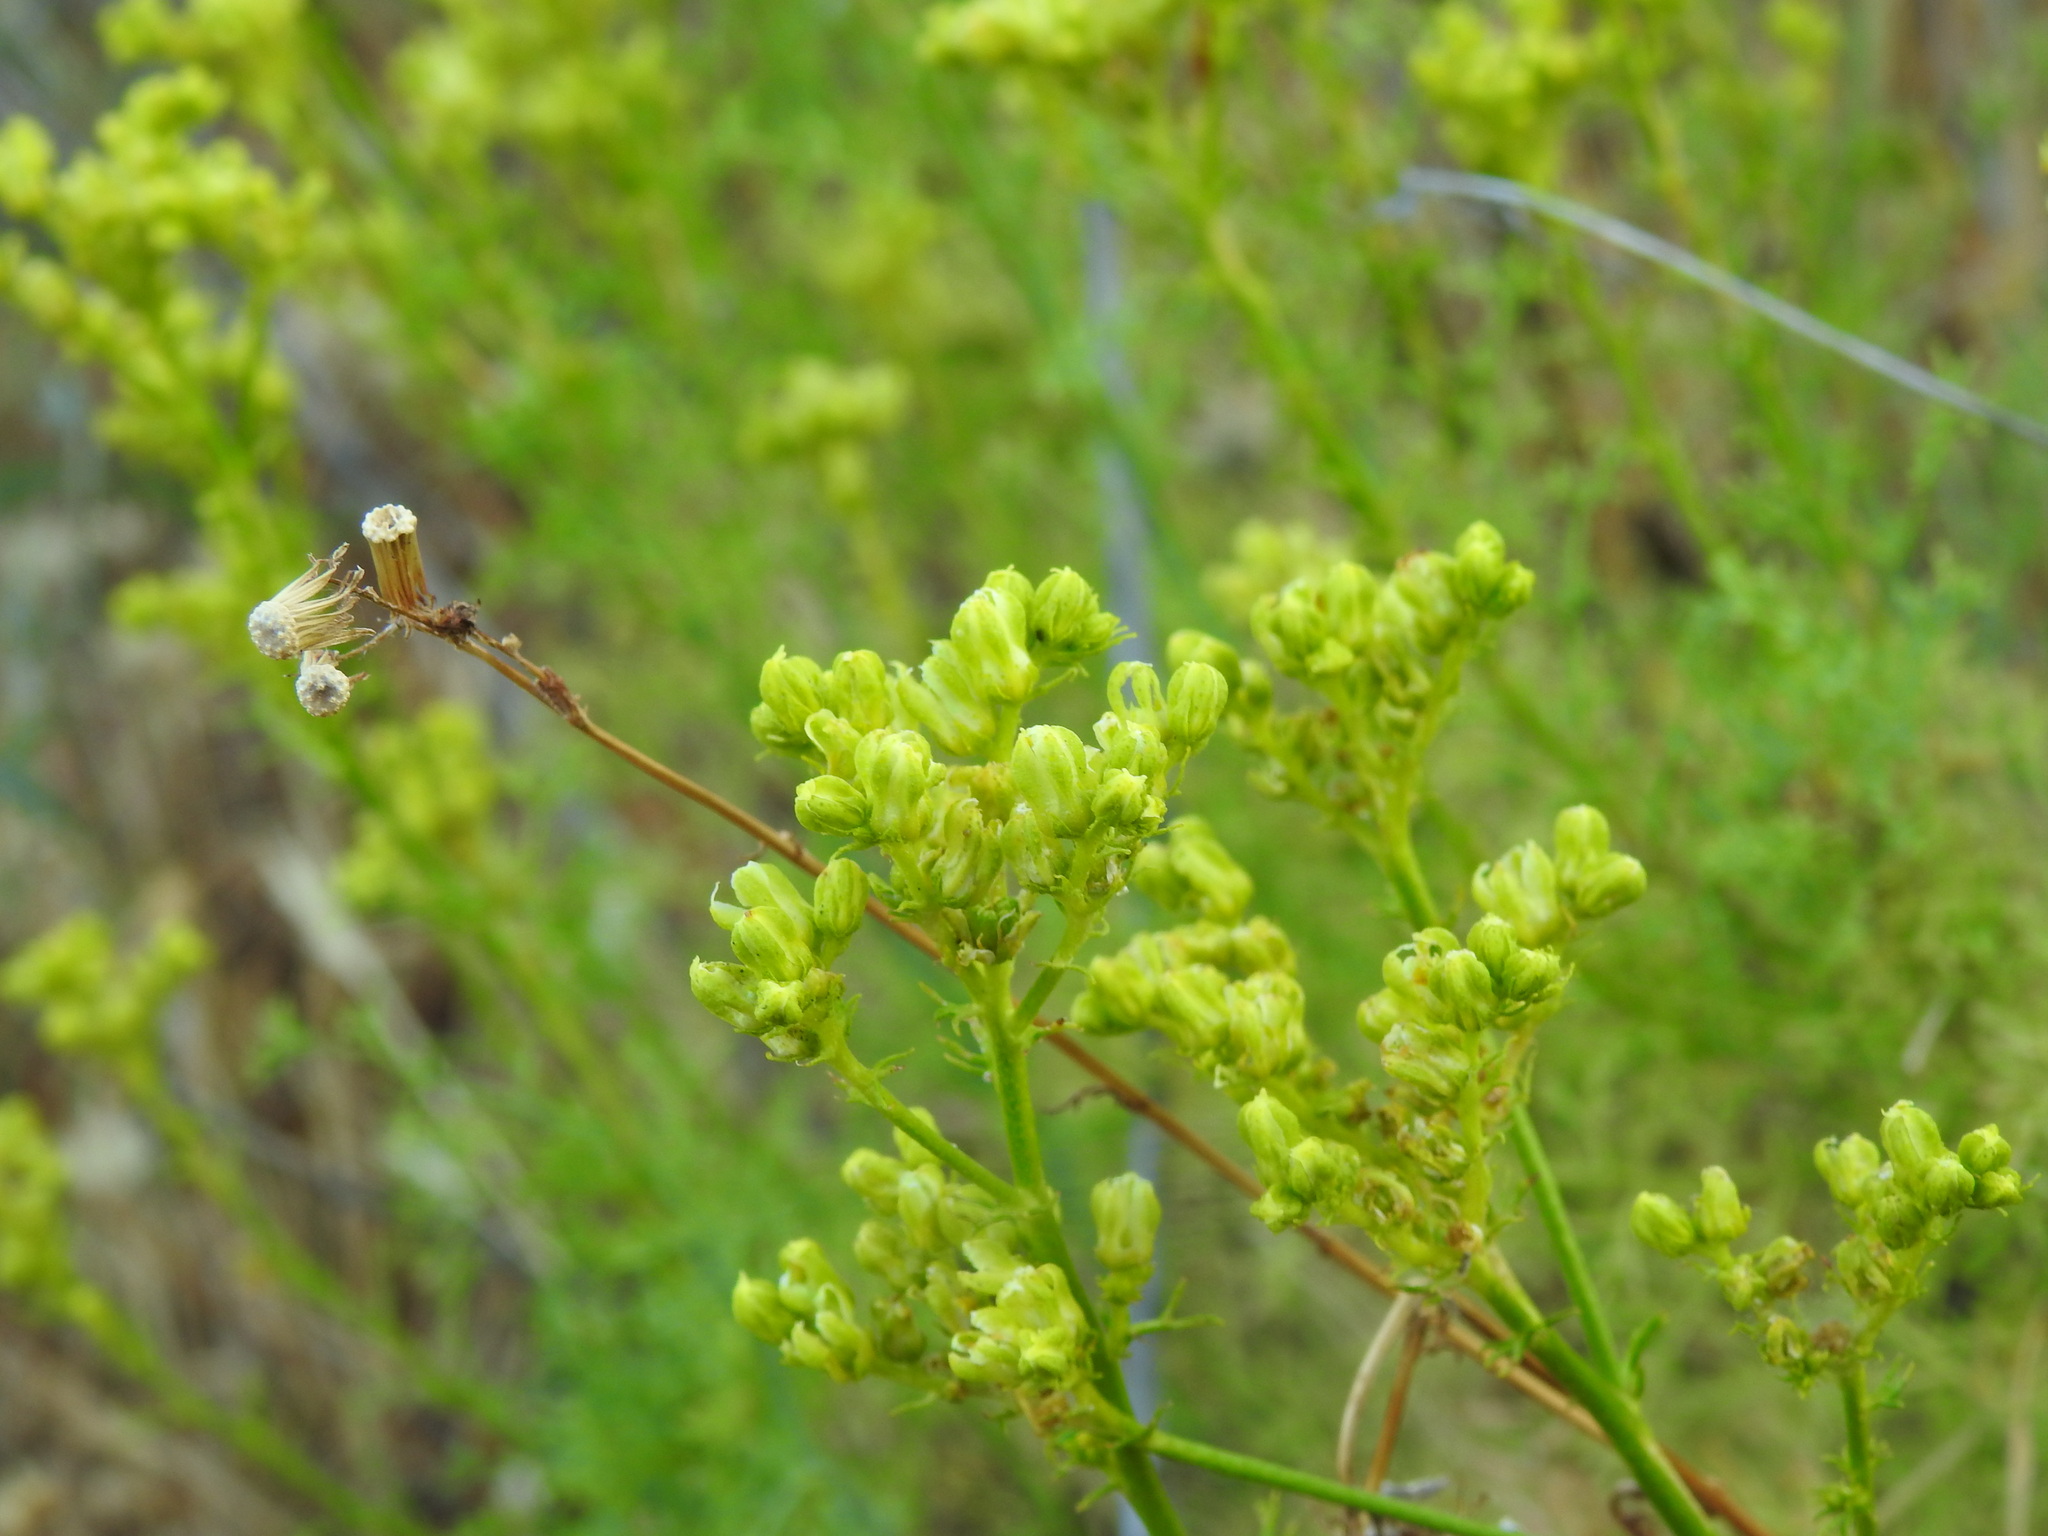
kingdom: Plantae
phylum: Tracheophyta
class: Magnoliopsida
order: Sapindales
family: Rutaceae
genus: Ruta
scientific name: Ruta montana
